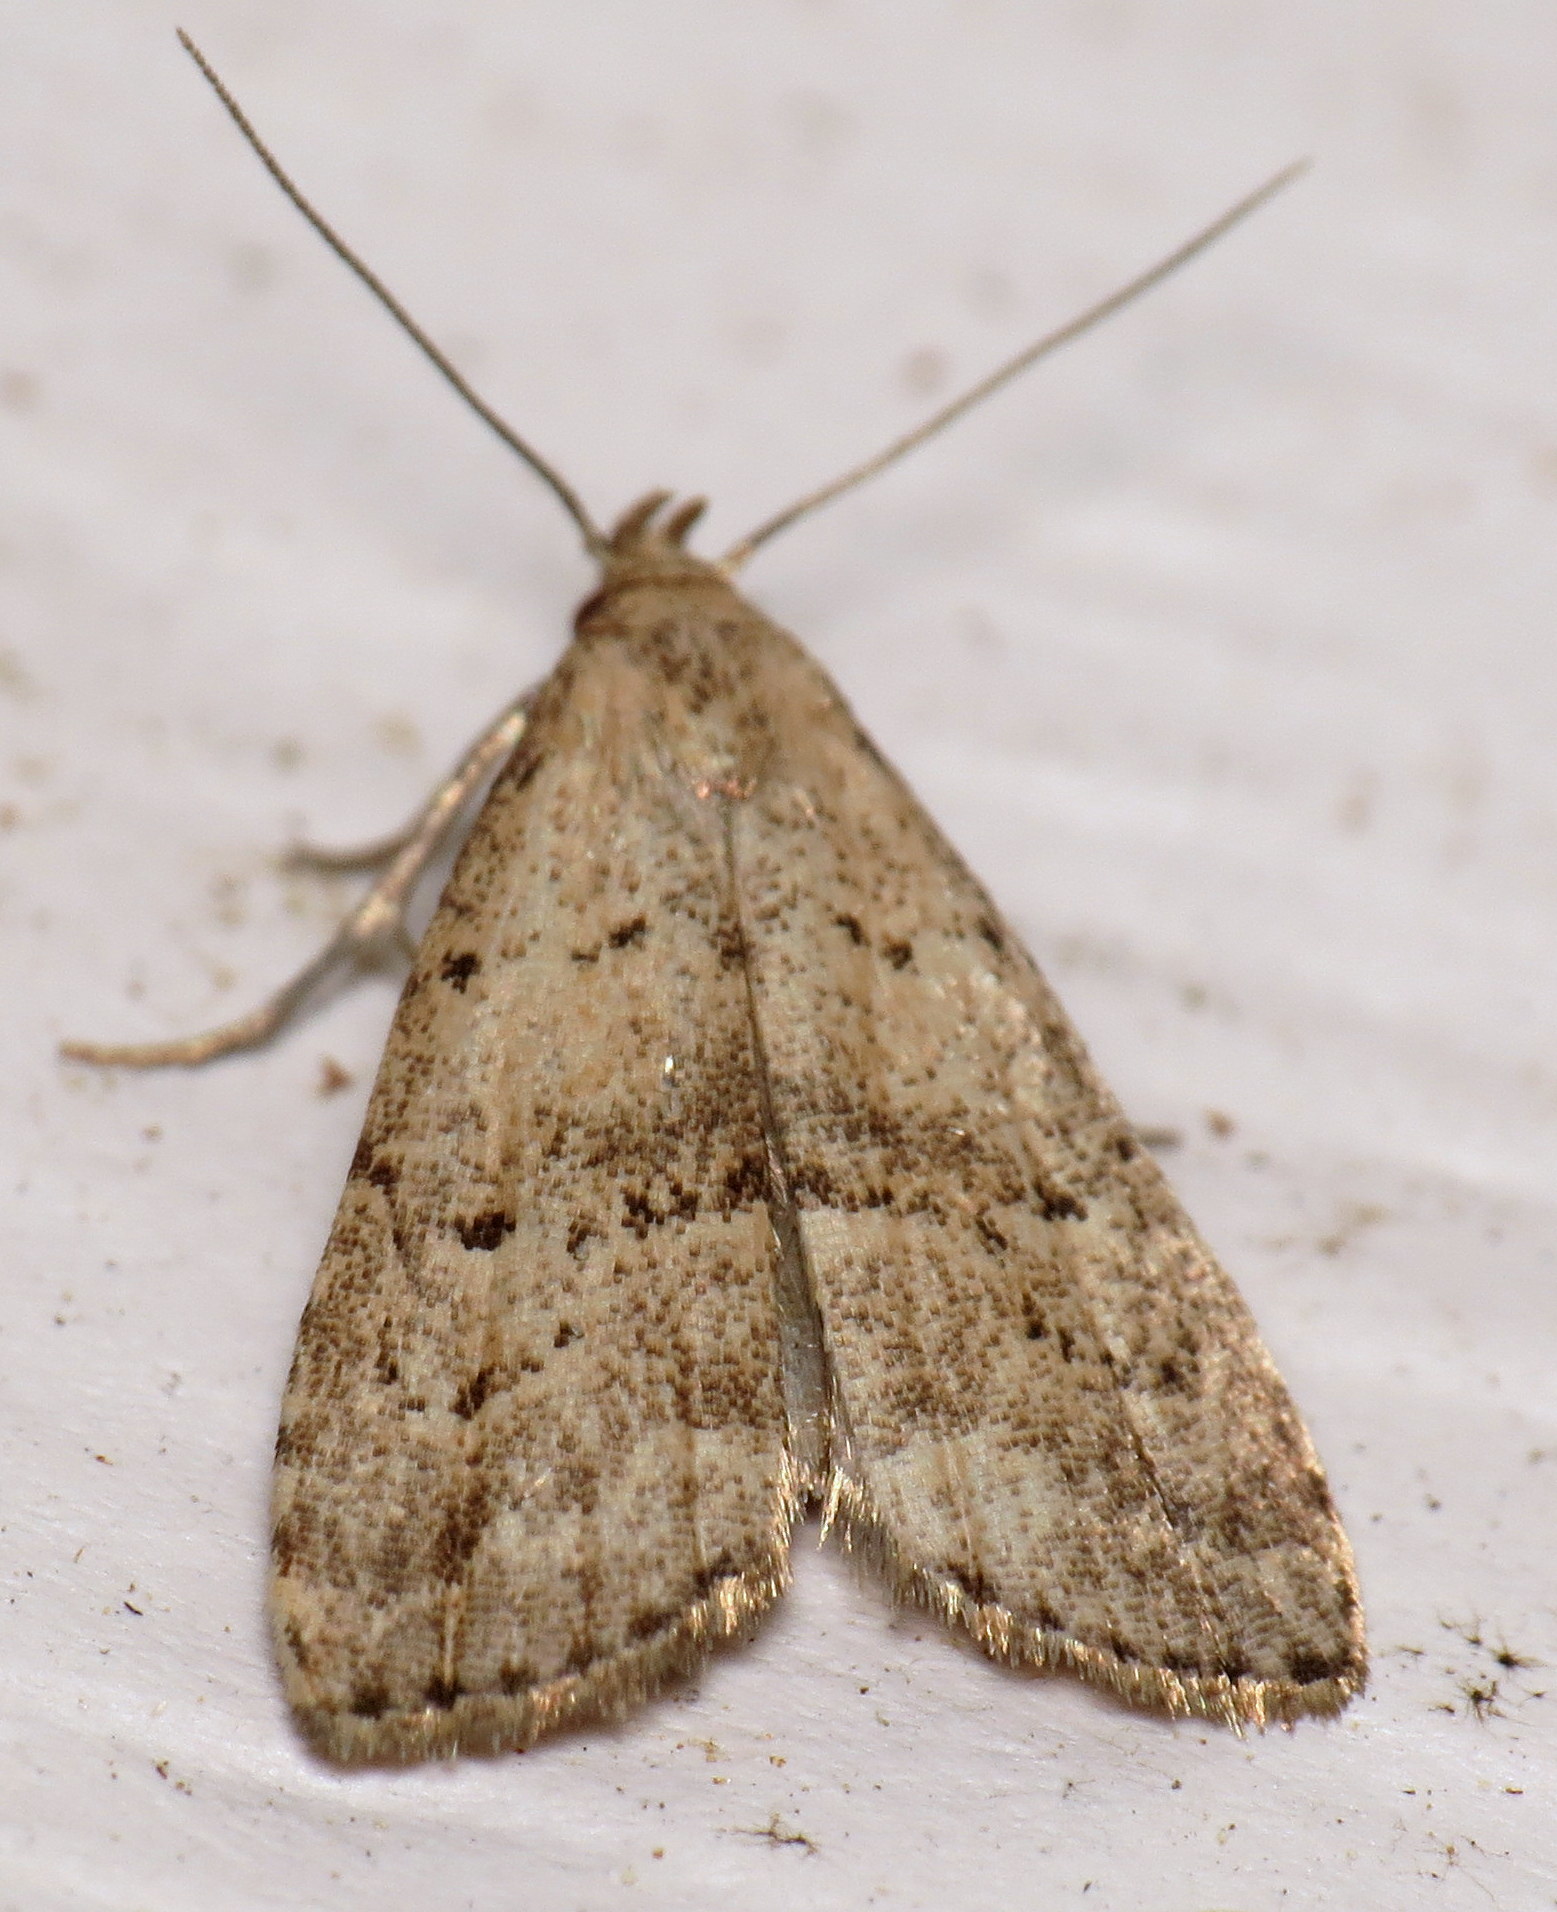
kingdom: Animalia
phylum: Arthropoda
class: Insecta
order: Lepidoptera
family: Erebidae
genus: Hypenodes
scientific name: Hypenodes fractilinea
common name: Broken-line hypenodes moth
